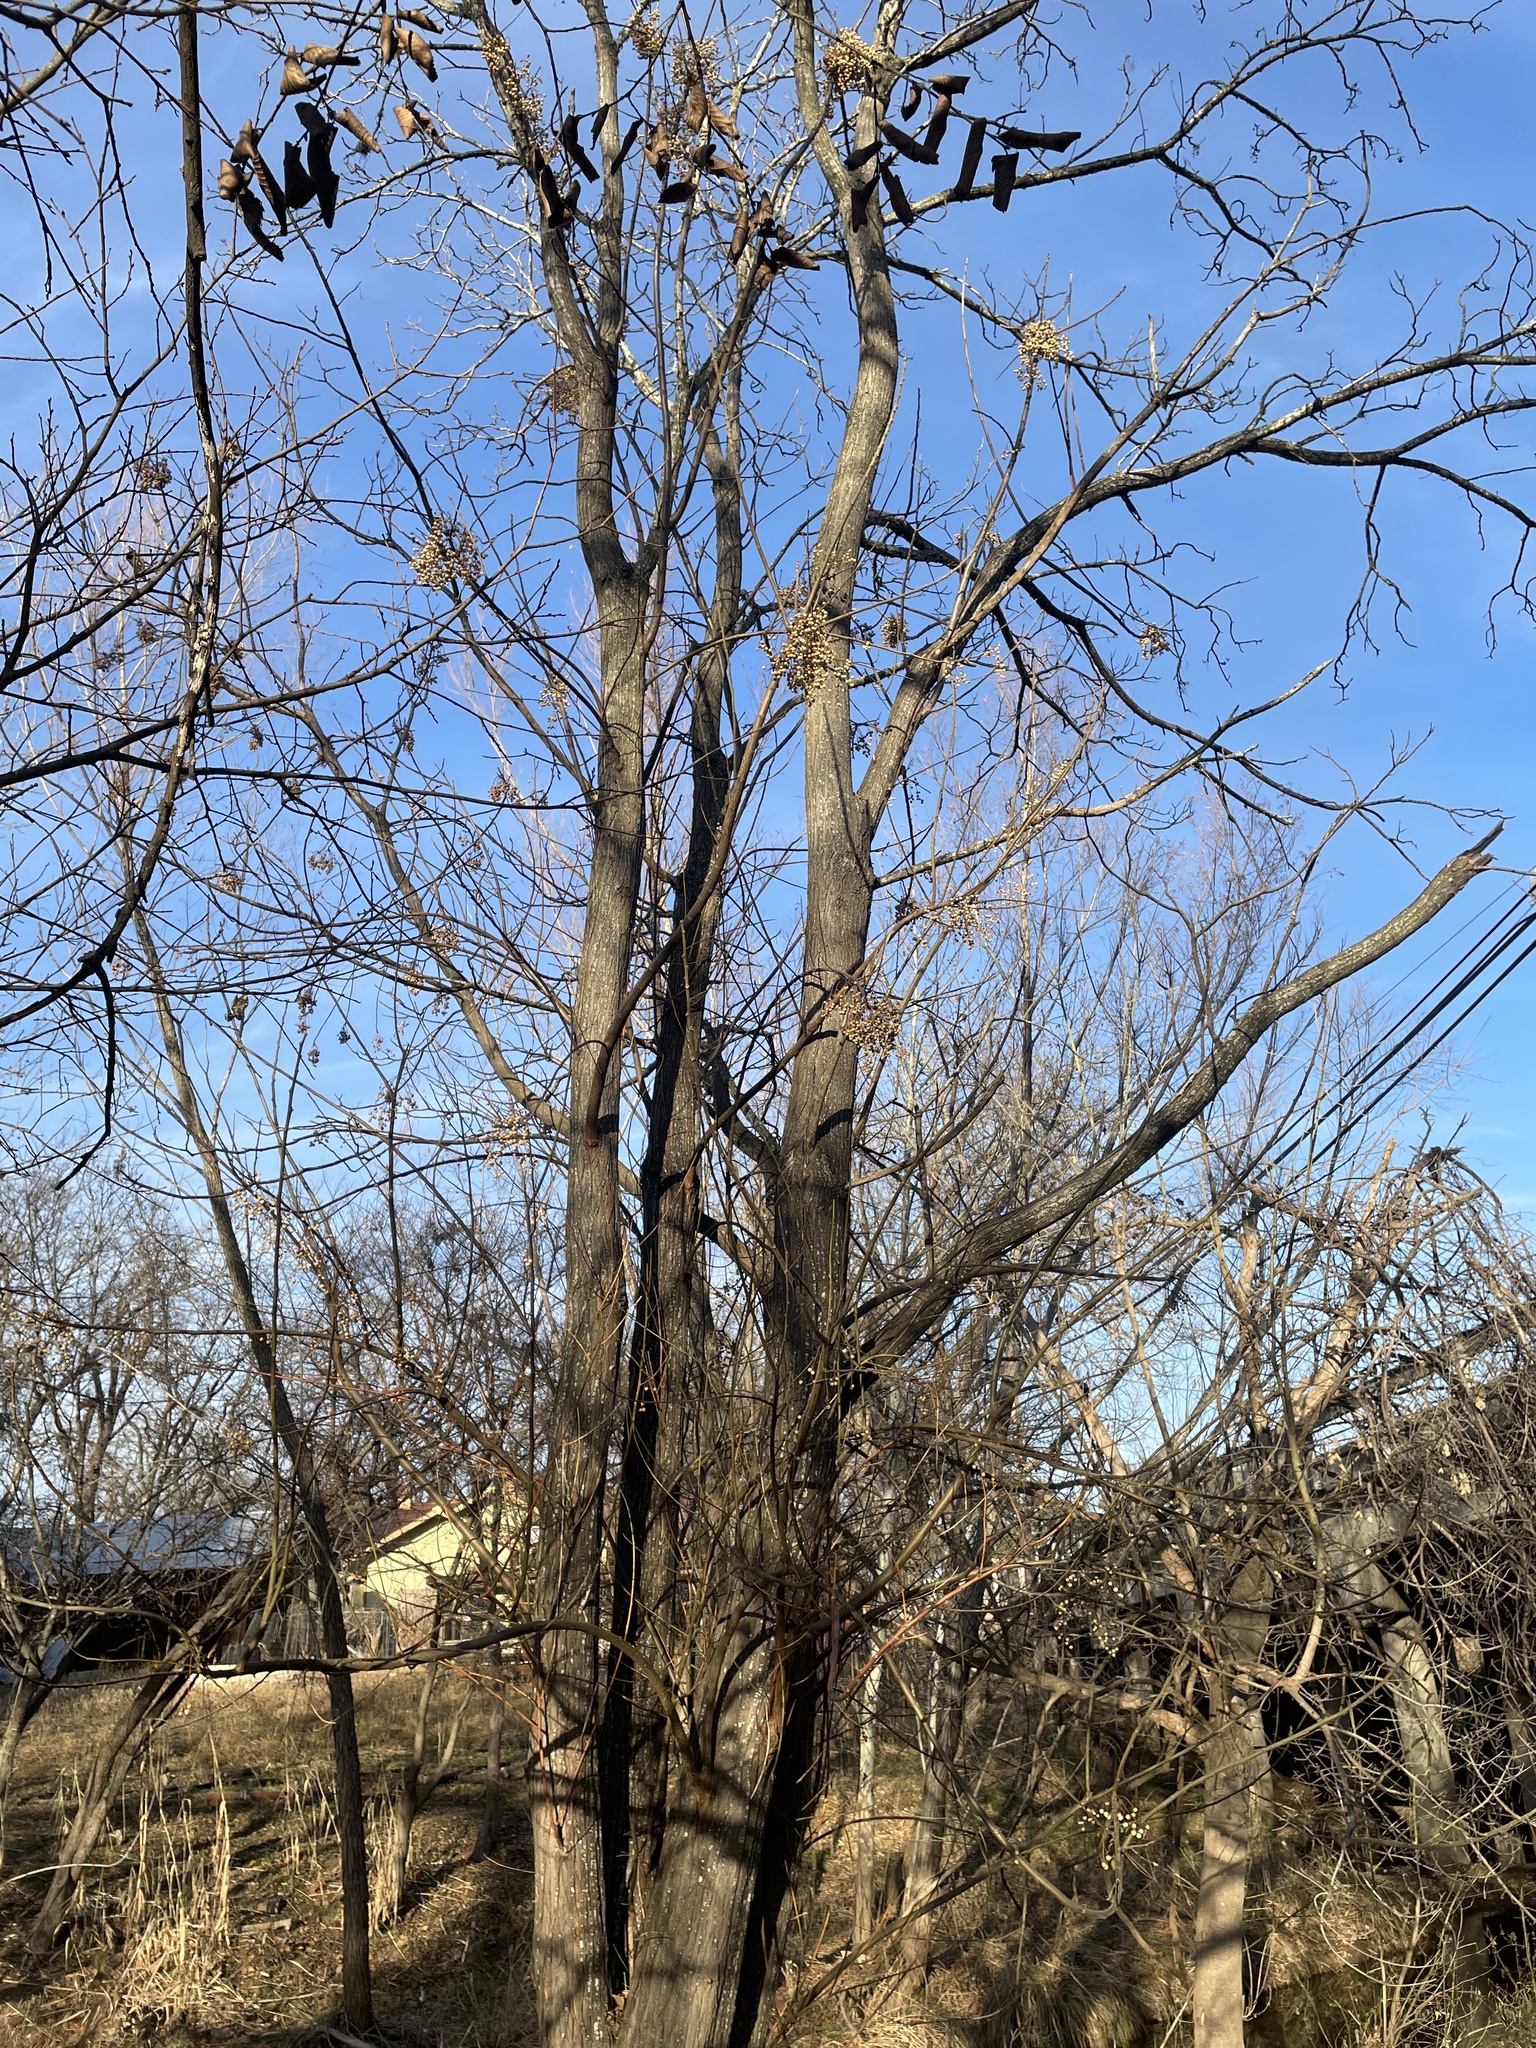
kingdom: Plantae
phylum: Tracheophyta
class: Magnoliopsida
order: Sapindales
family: Meliaceae
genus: Melia
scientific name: Melia azedarach
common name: Chinaberrytree
